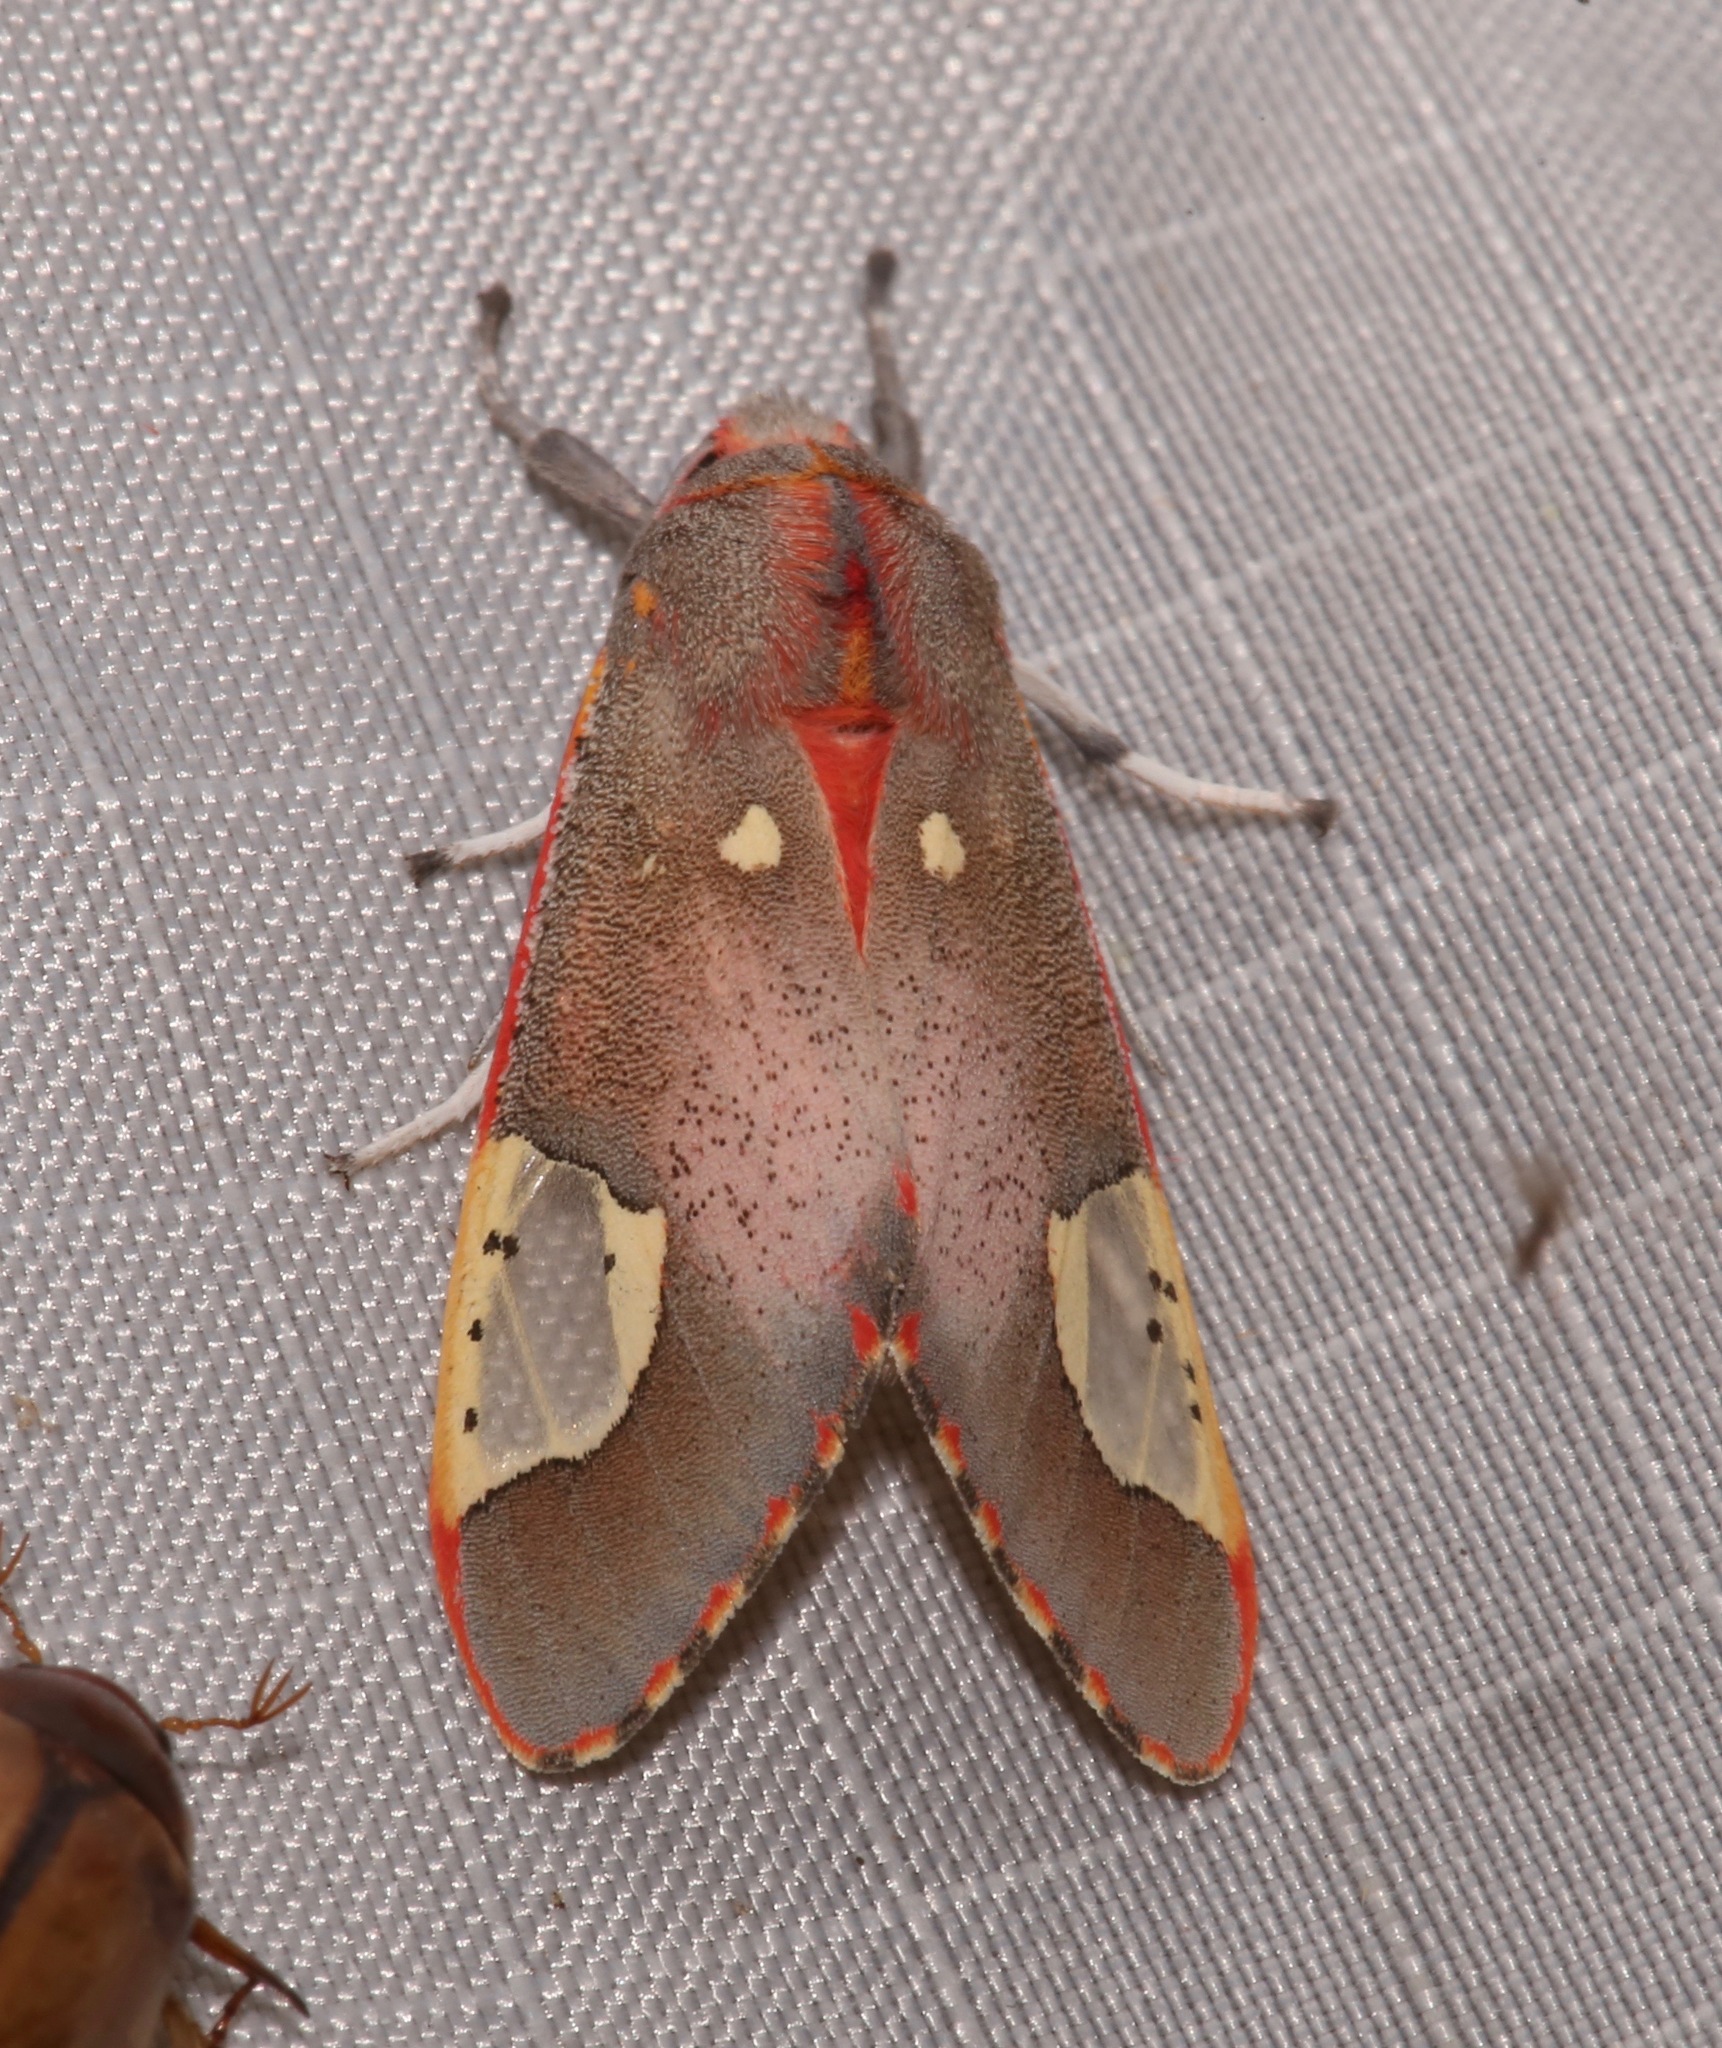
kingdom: Animalia
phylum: Arthropoda
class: Insecta
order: Lepidoptera
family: Erebidae
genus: Bertholdia
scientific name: Bertholdia trigona
